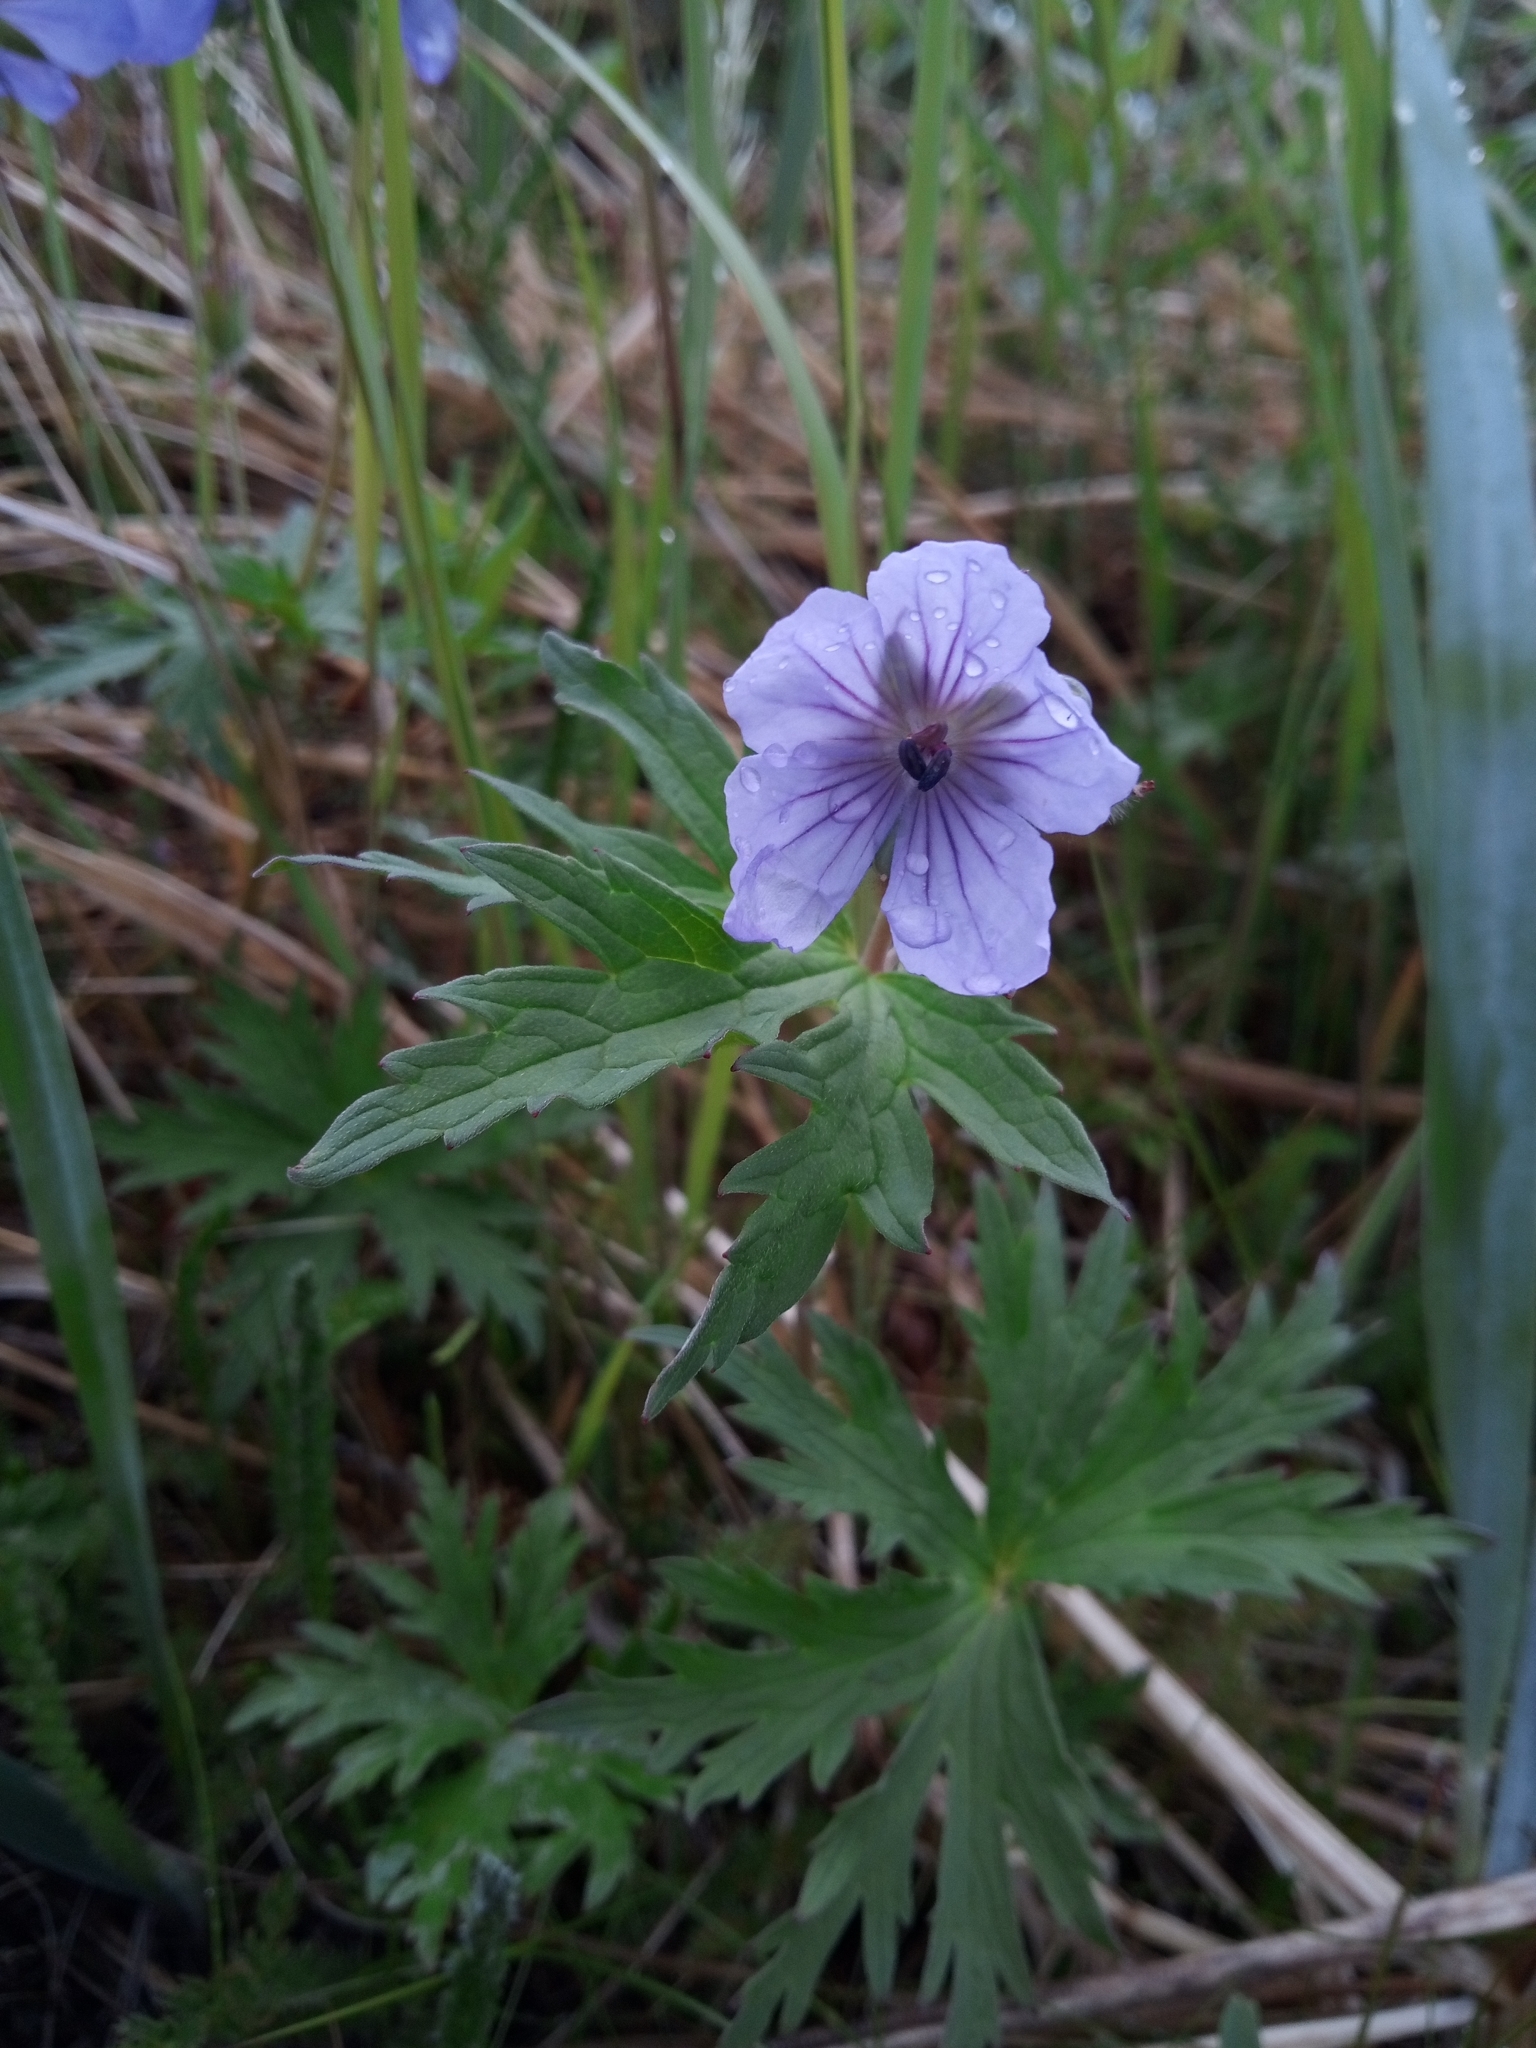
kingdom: Plantae
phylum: Tracheophyta
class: Magnoliopsida
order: Geraniales
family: Geraniaceae
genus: Geranium
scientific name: Geranium erianthum
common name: Northern crane's-bill
